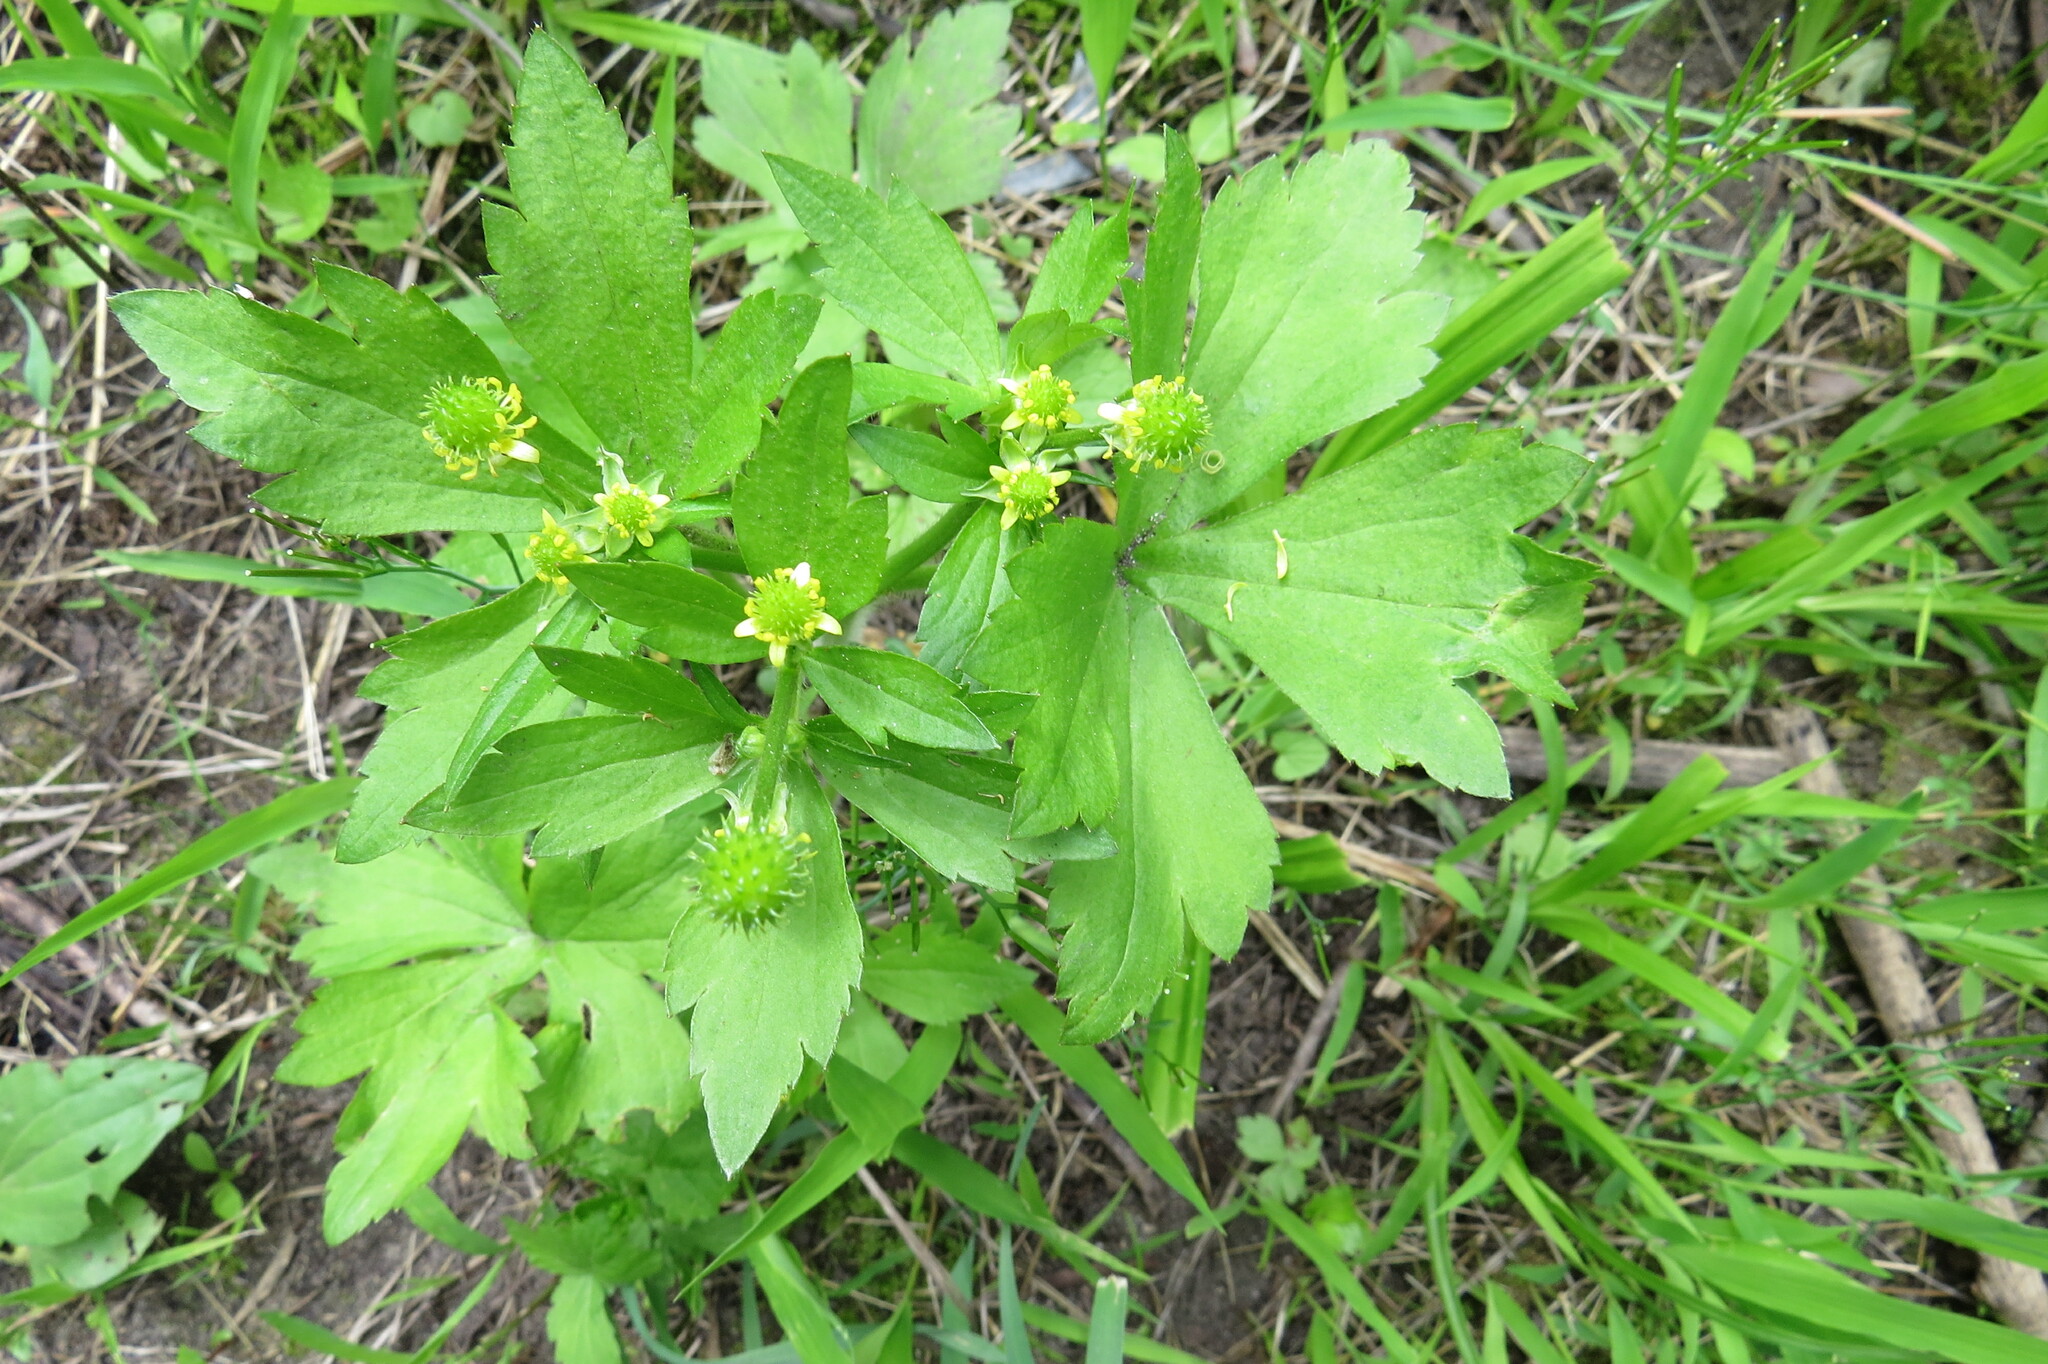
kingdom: Plantae
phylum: Tracheophyta
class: Magnoliopsida
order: Ranunculales
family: Ranunculaceae
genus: Ranunculus
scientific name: Ranunculus recurvatus
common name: Blisterwort
